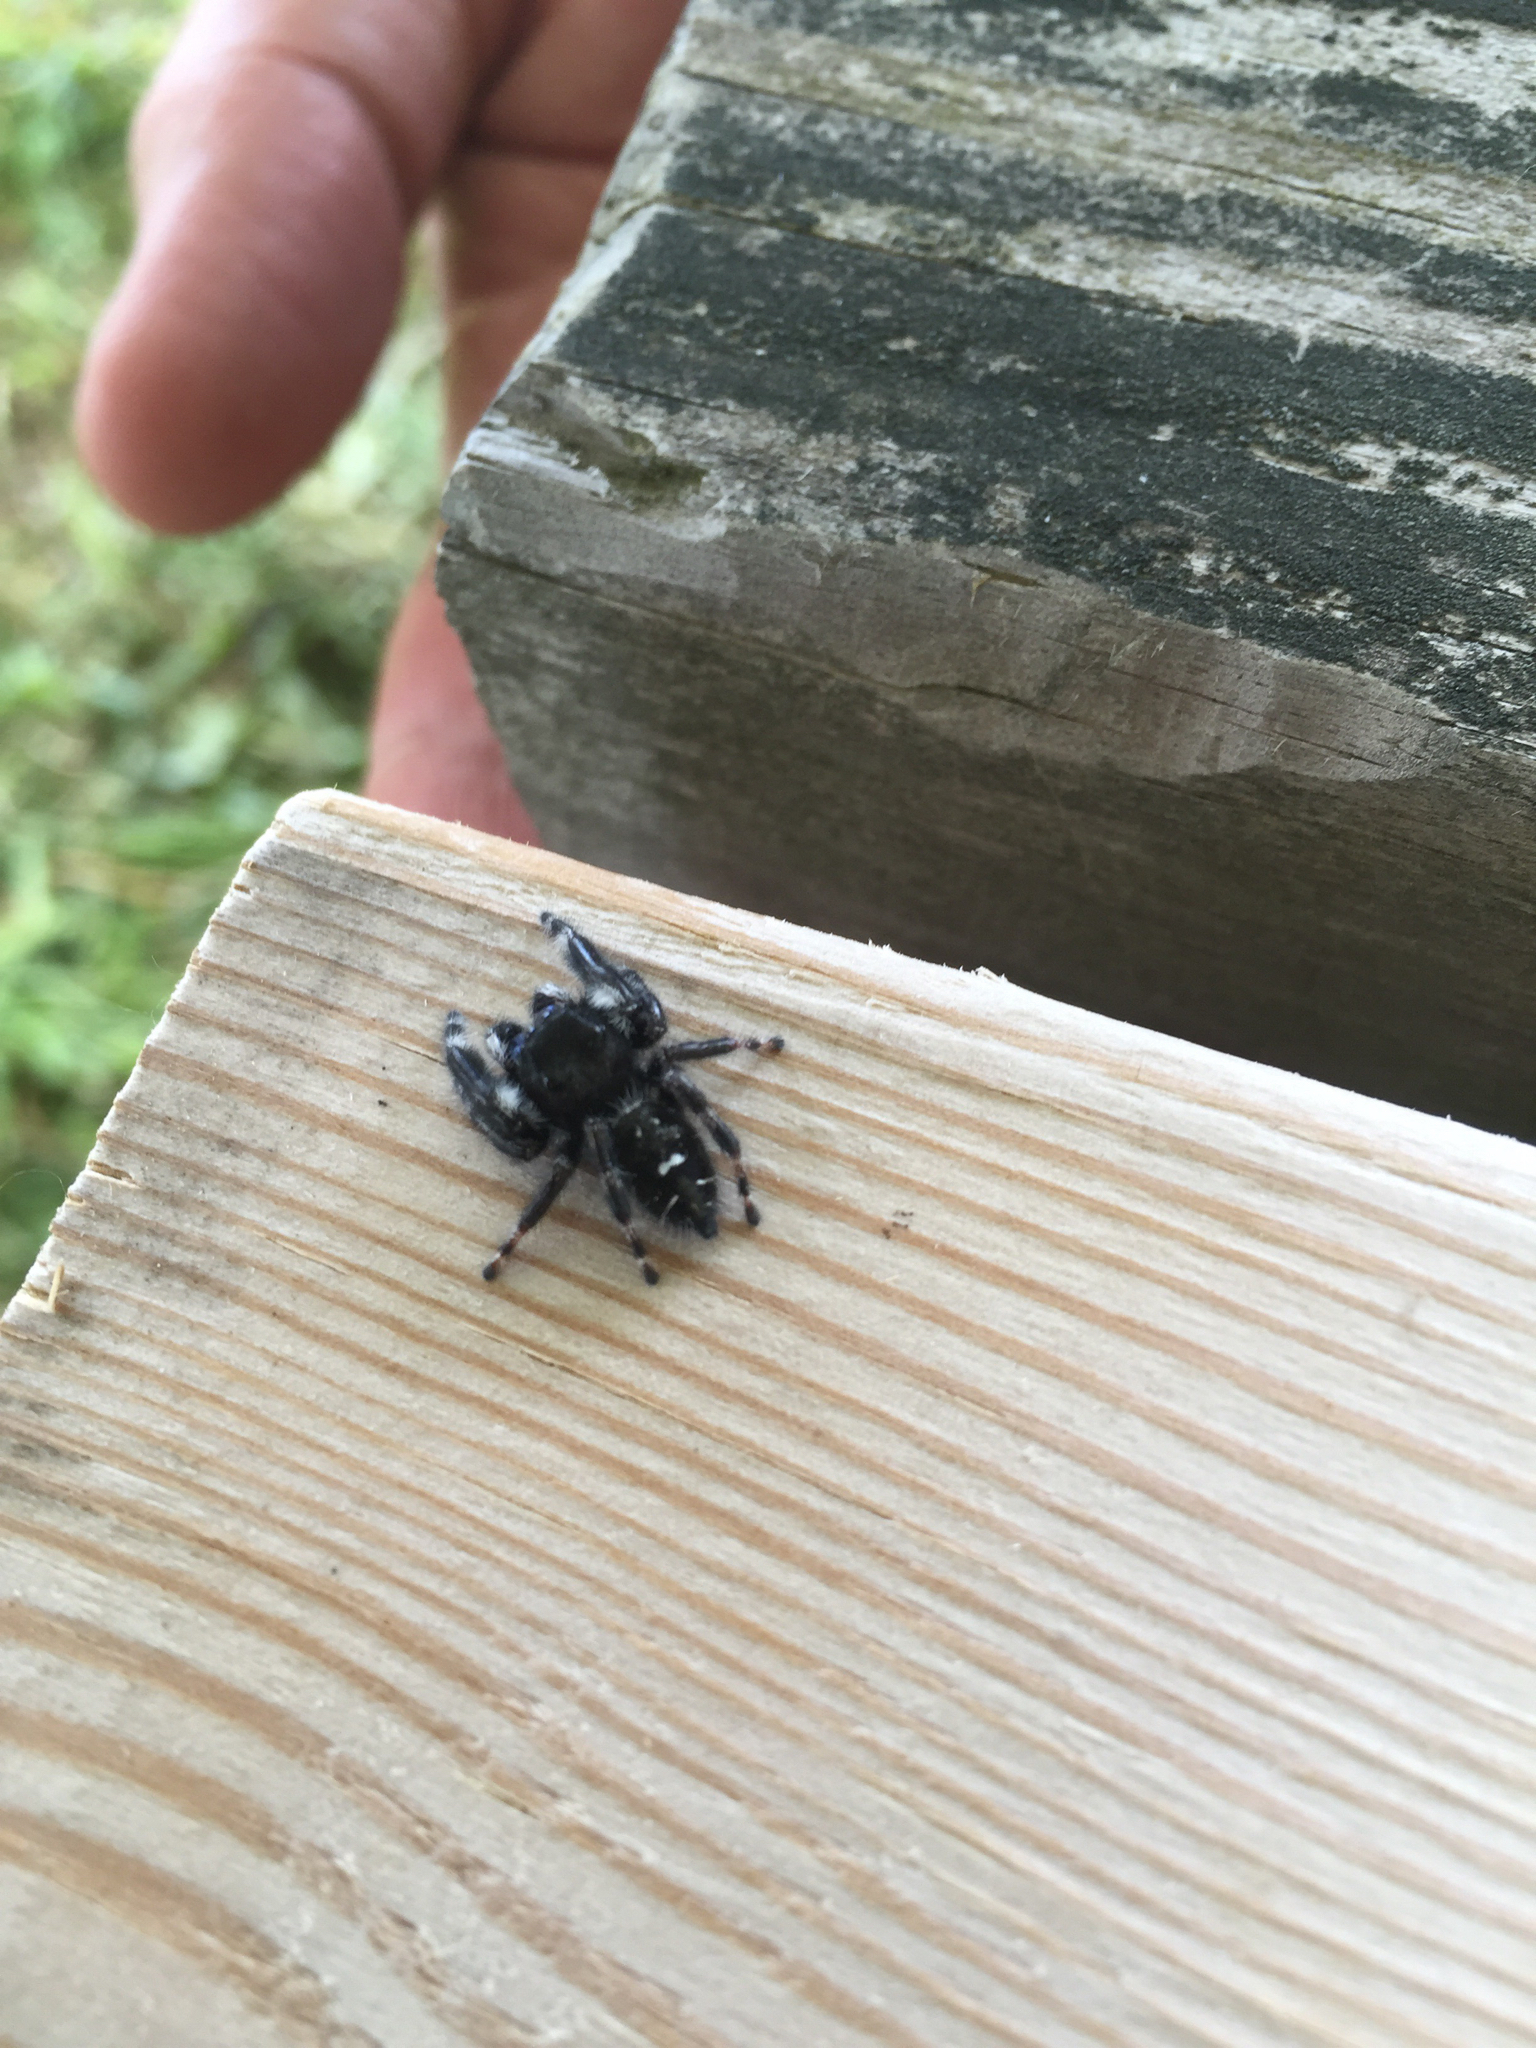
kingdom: Animalia
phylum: Arthropoda
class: Arachnida
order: Araneae
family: Salticidae
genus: Phidippus
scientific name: Phidippus audax
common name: Bold jumper
